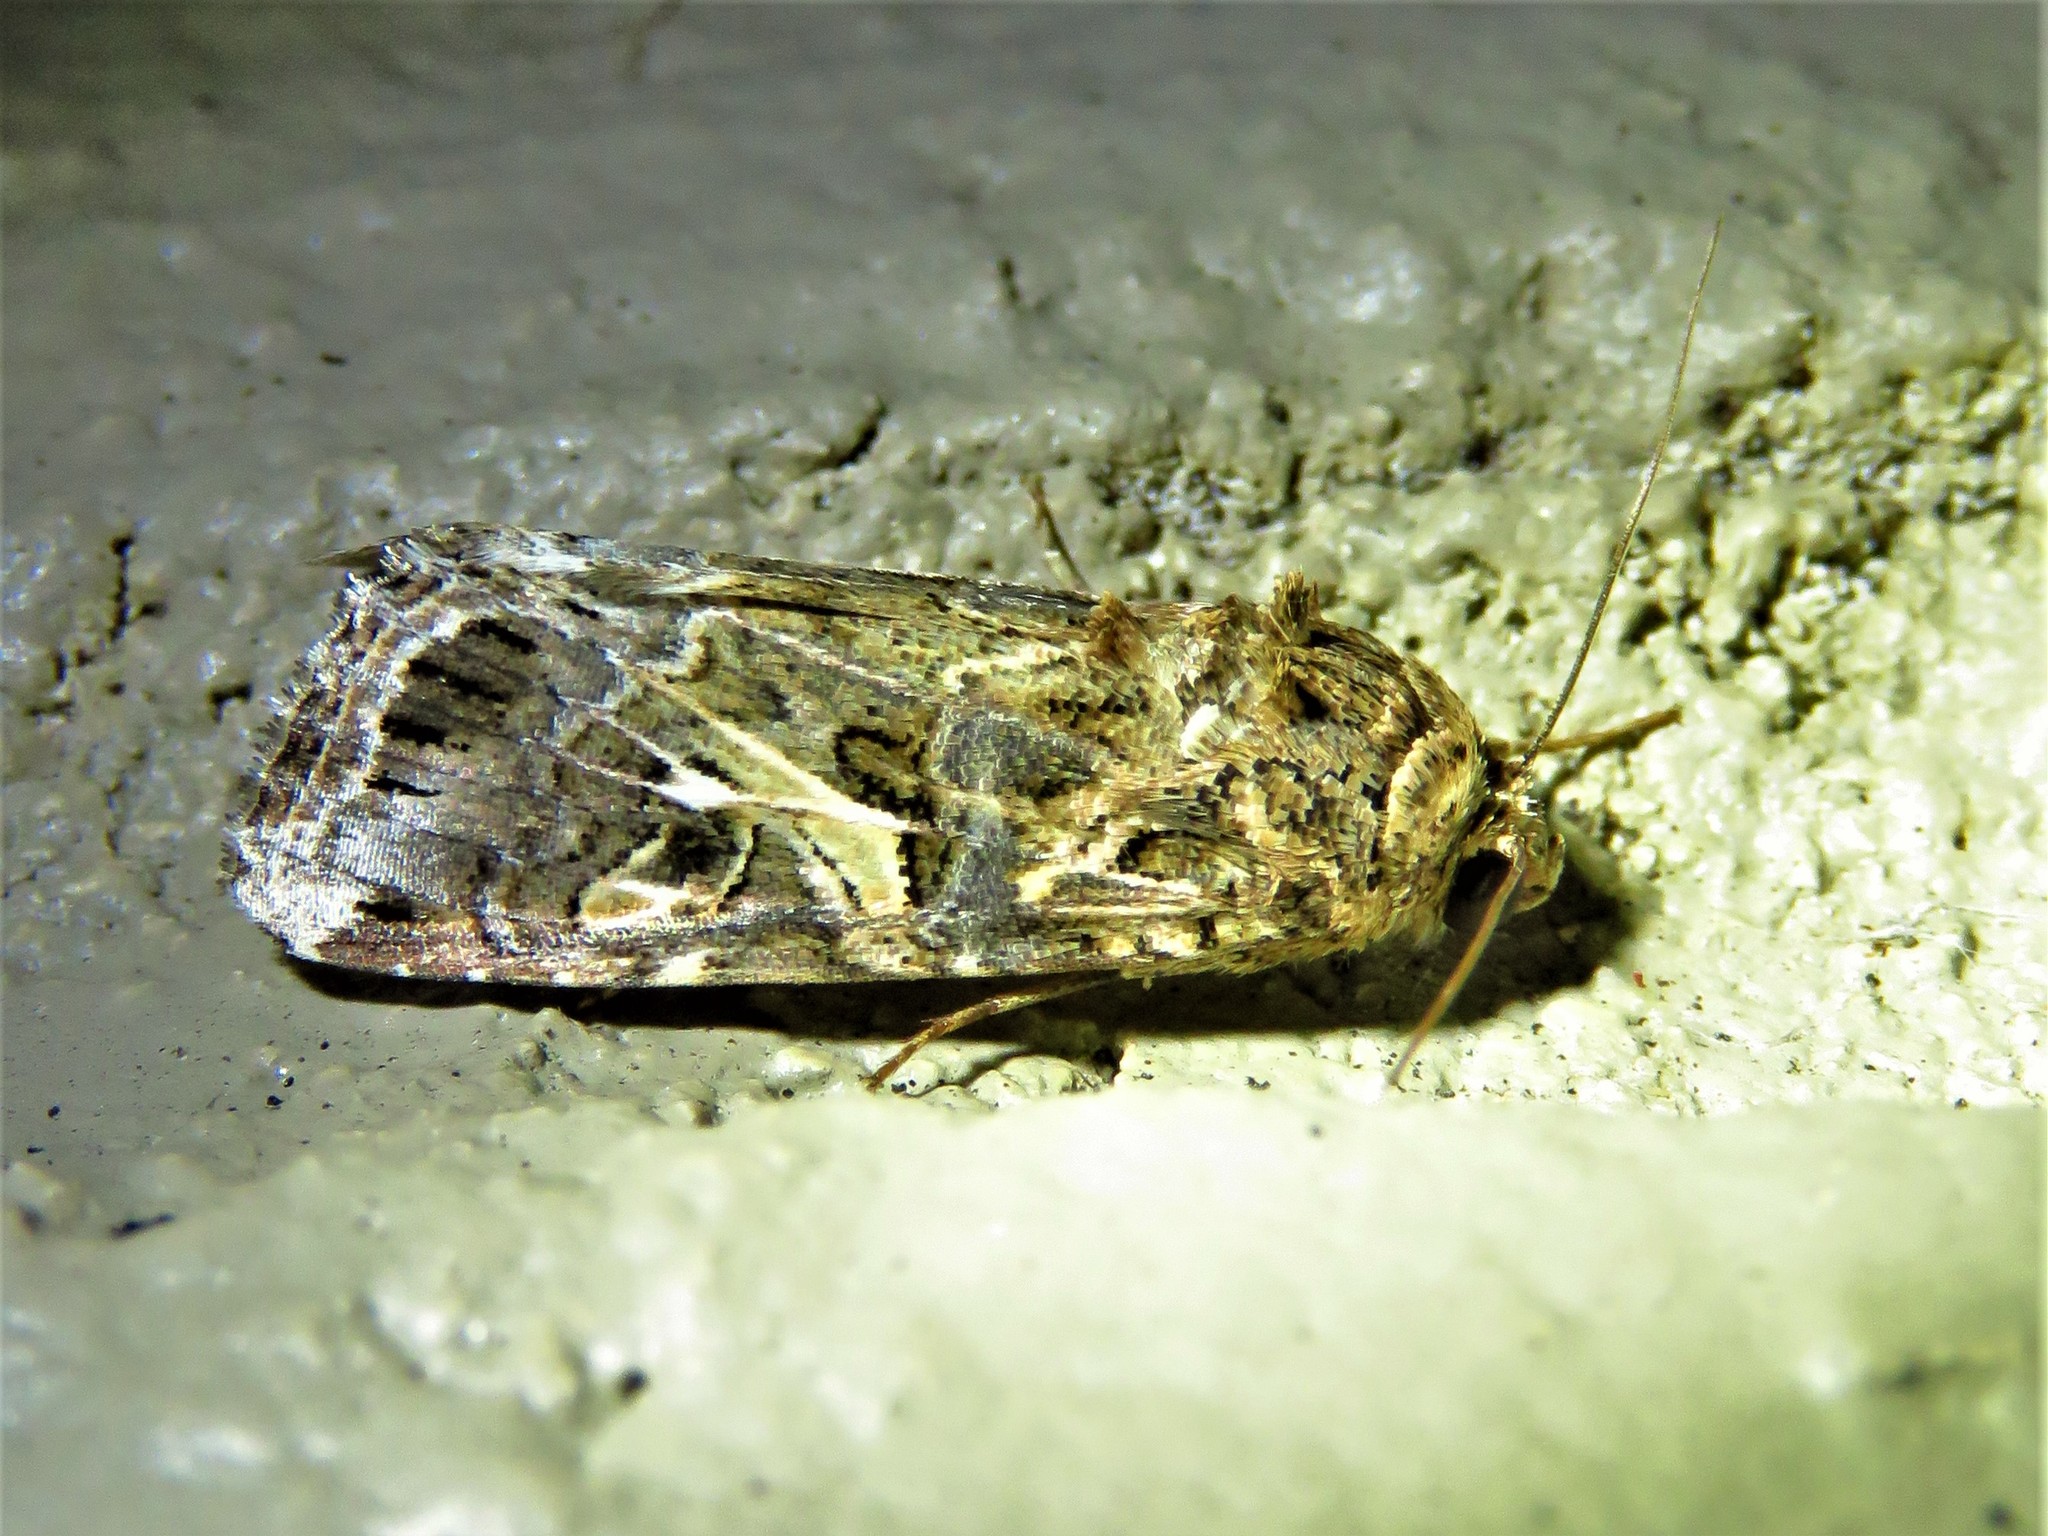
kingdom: Animalia
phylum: Arthropoda
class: Insecta
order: Lepidoptera
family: Noctuidae
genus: Spodoptera
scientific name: Spodoptera ornithogalli
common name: Yellow-striped armyworm
